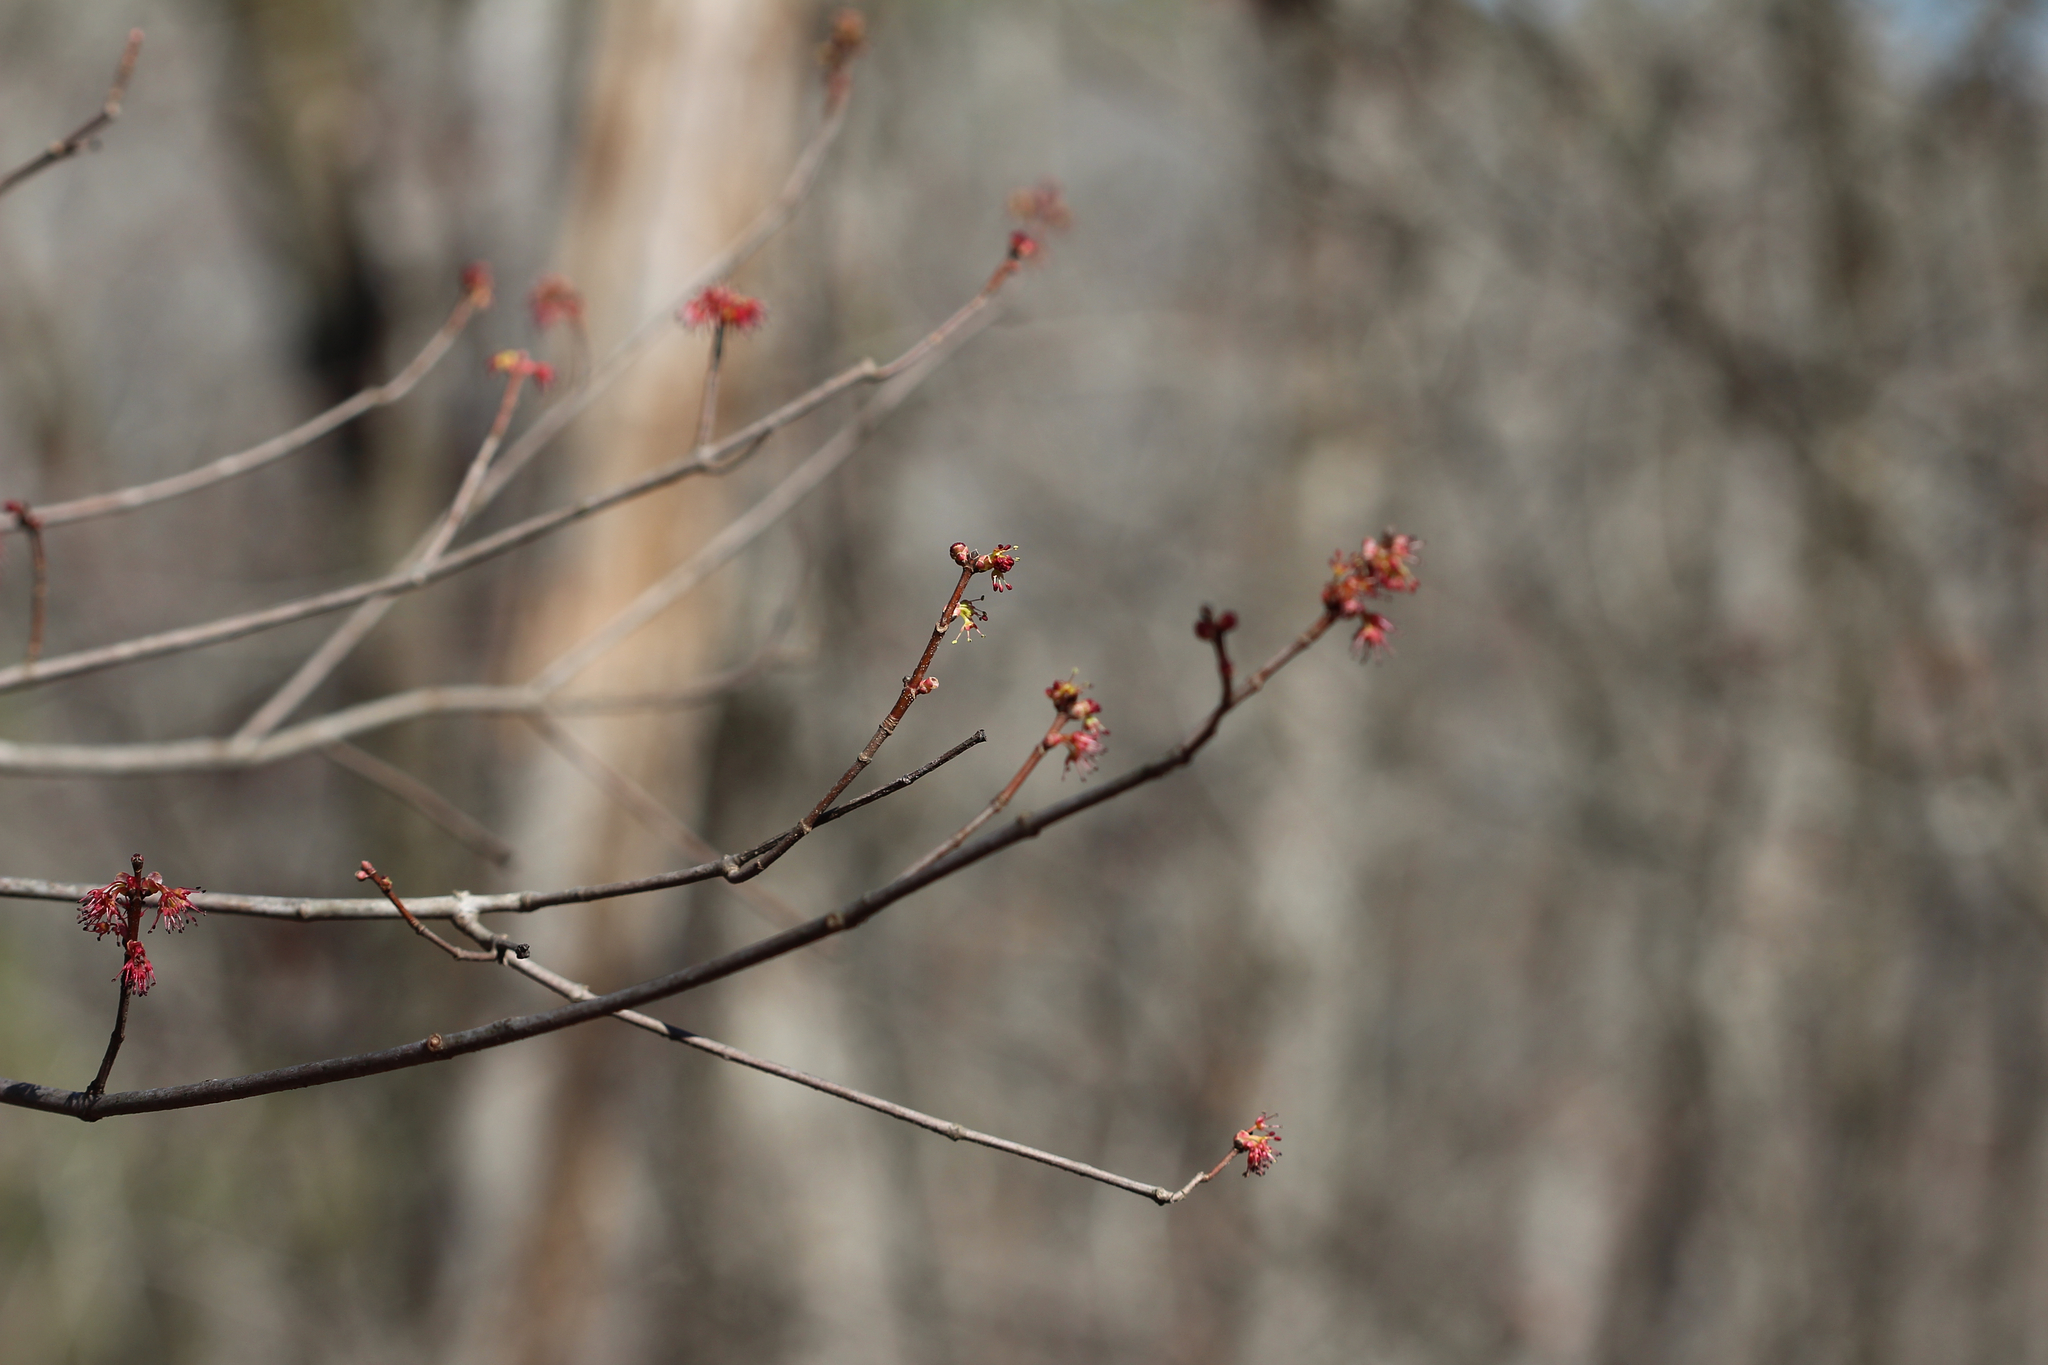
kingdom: Plantae
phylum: Tracheophyta
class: Magnoliopsida
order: Sapindales
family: Sapindaceae
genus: Acer
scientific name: Acer rubrum
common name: Red maple
